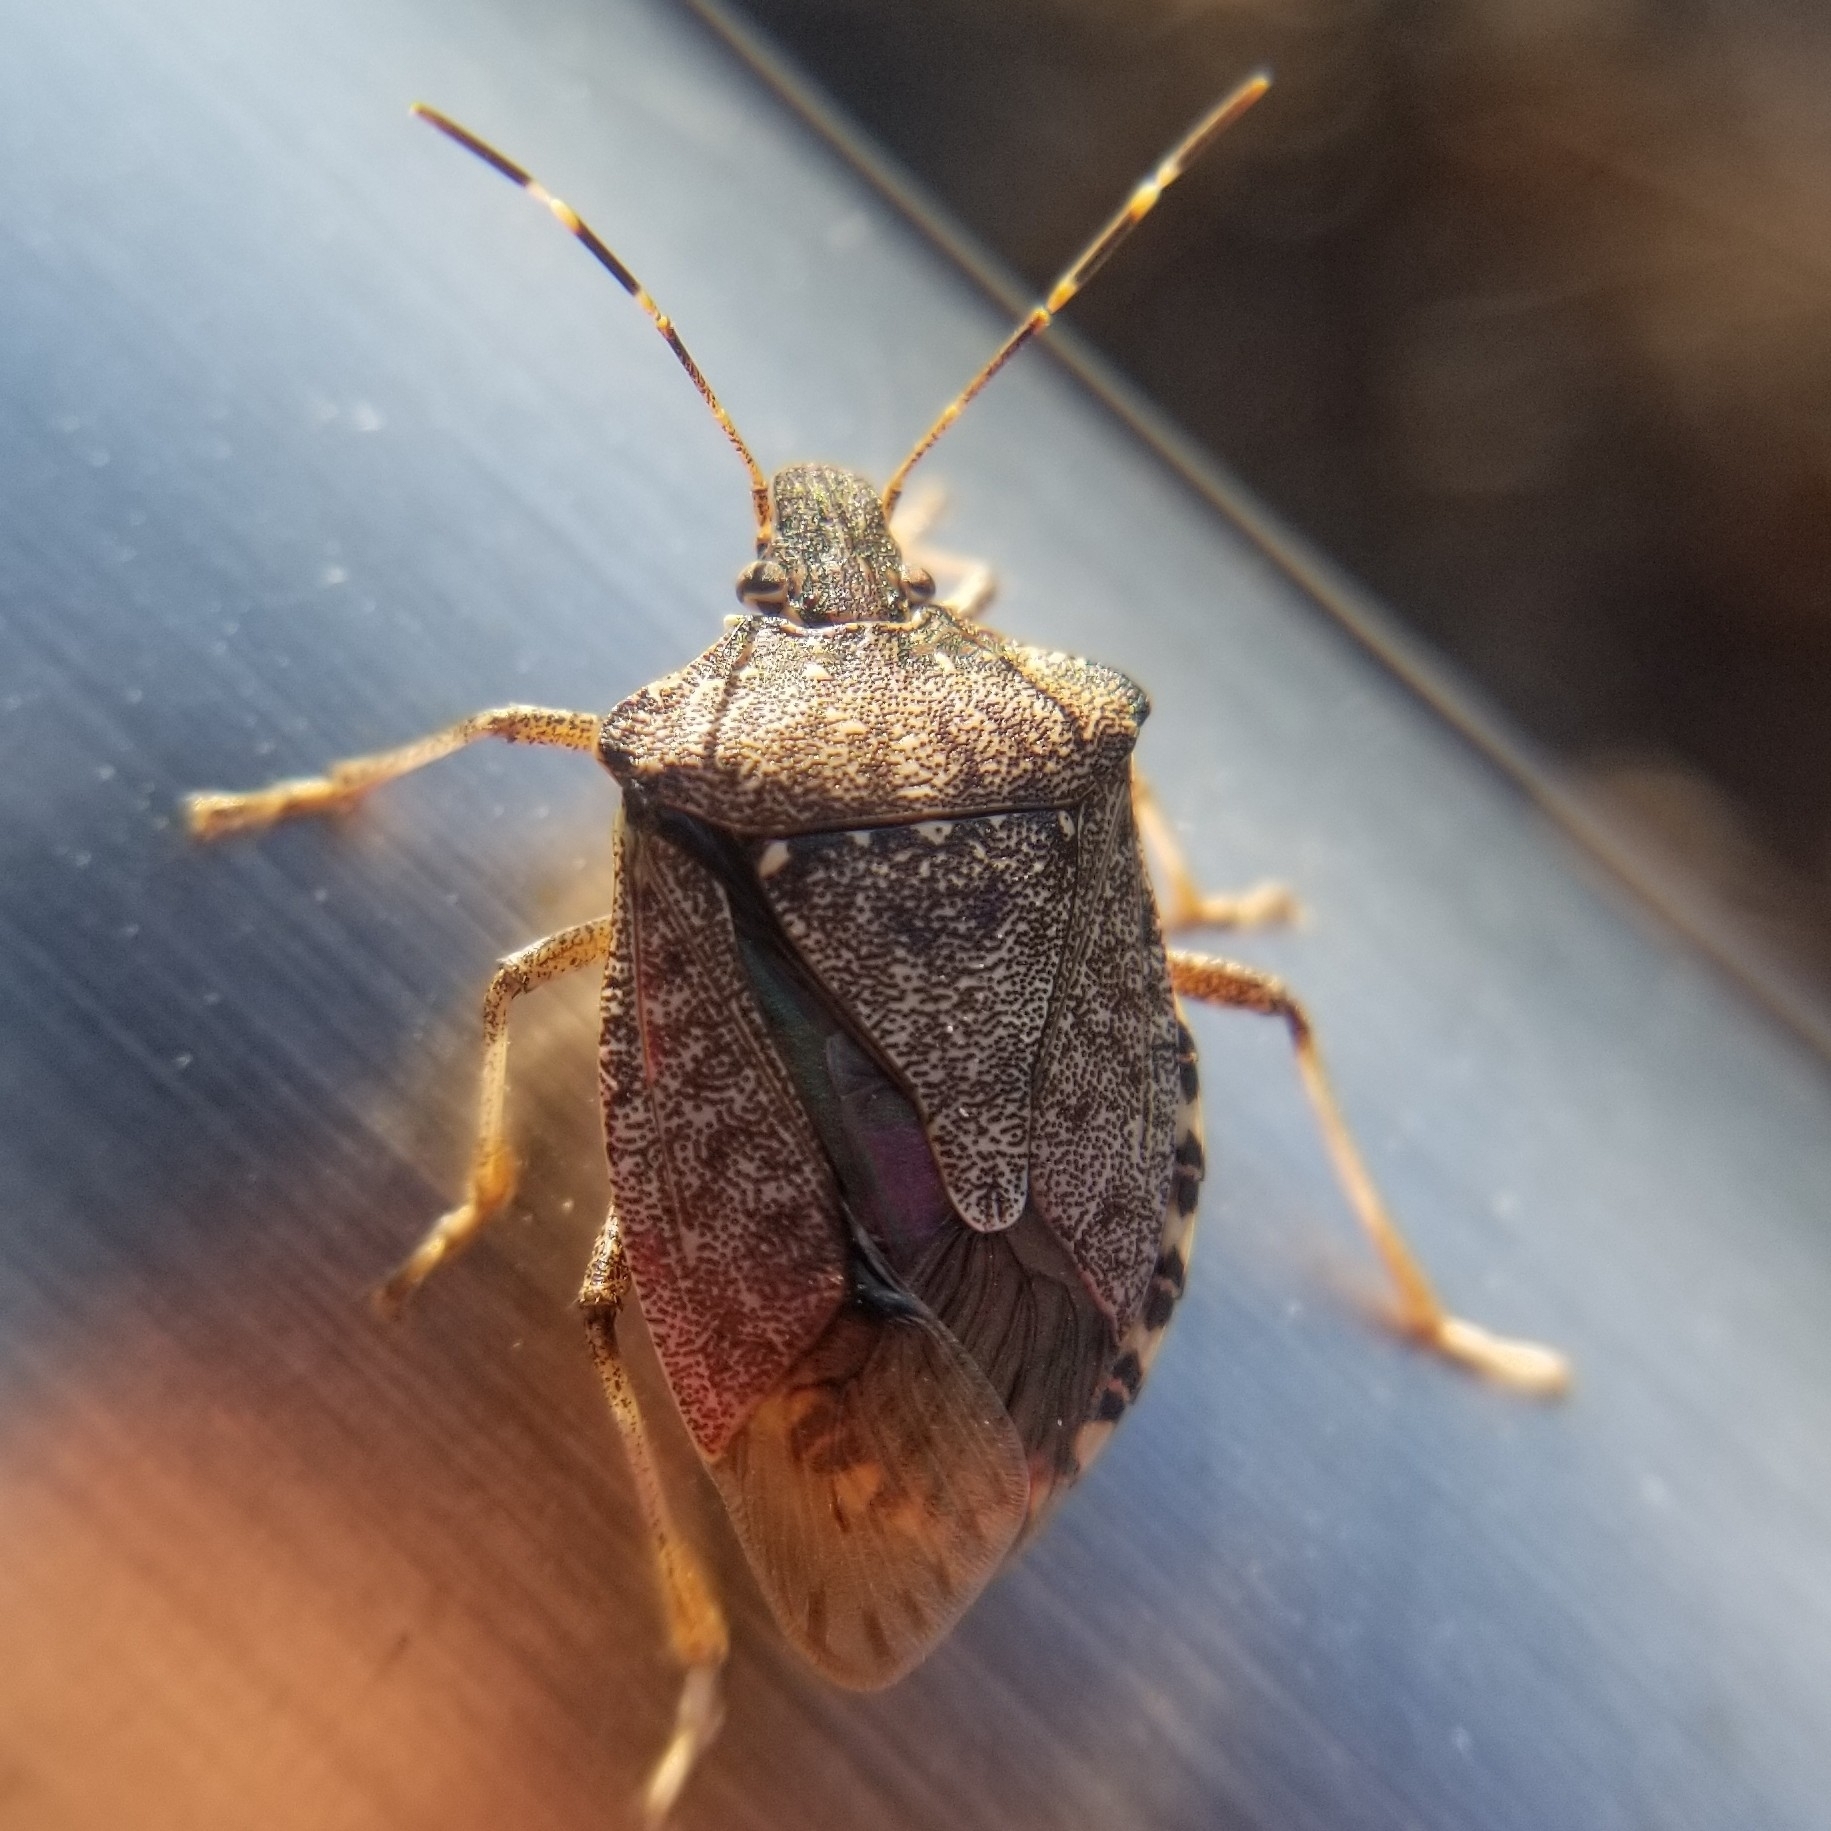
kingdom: Animalia
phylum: Arthropoda
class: Insecta
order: Hemiptera
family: Pentatomidae
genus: Halyomorpha
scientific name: Halyomorpha halys
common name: Brown marmorated stink bug
